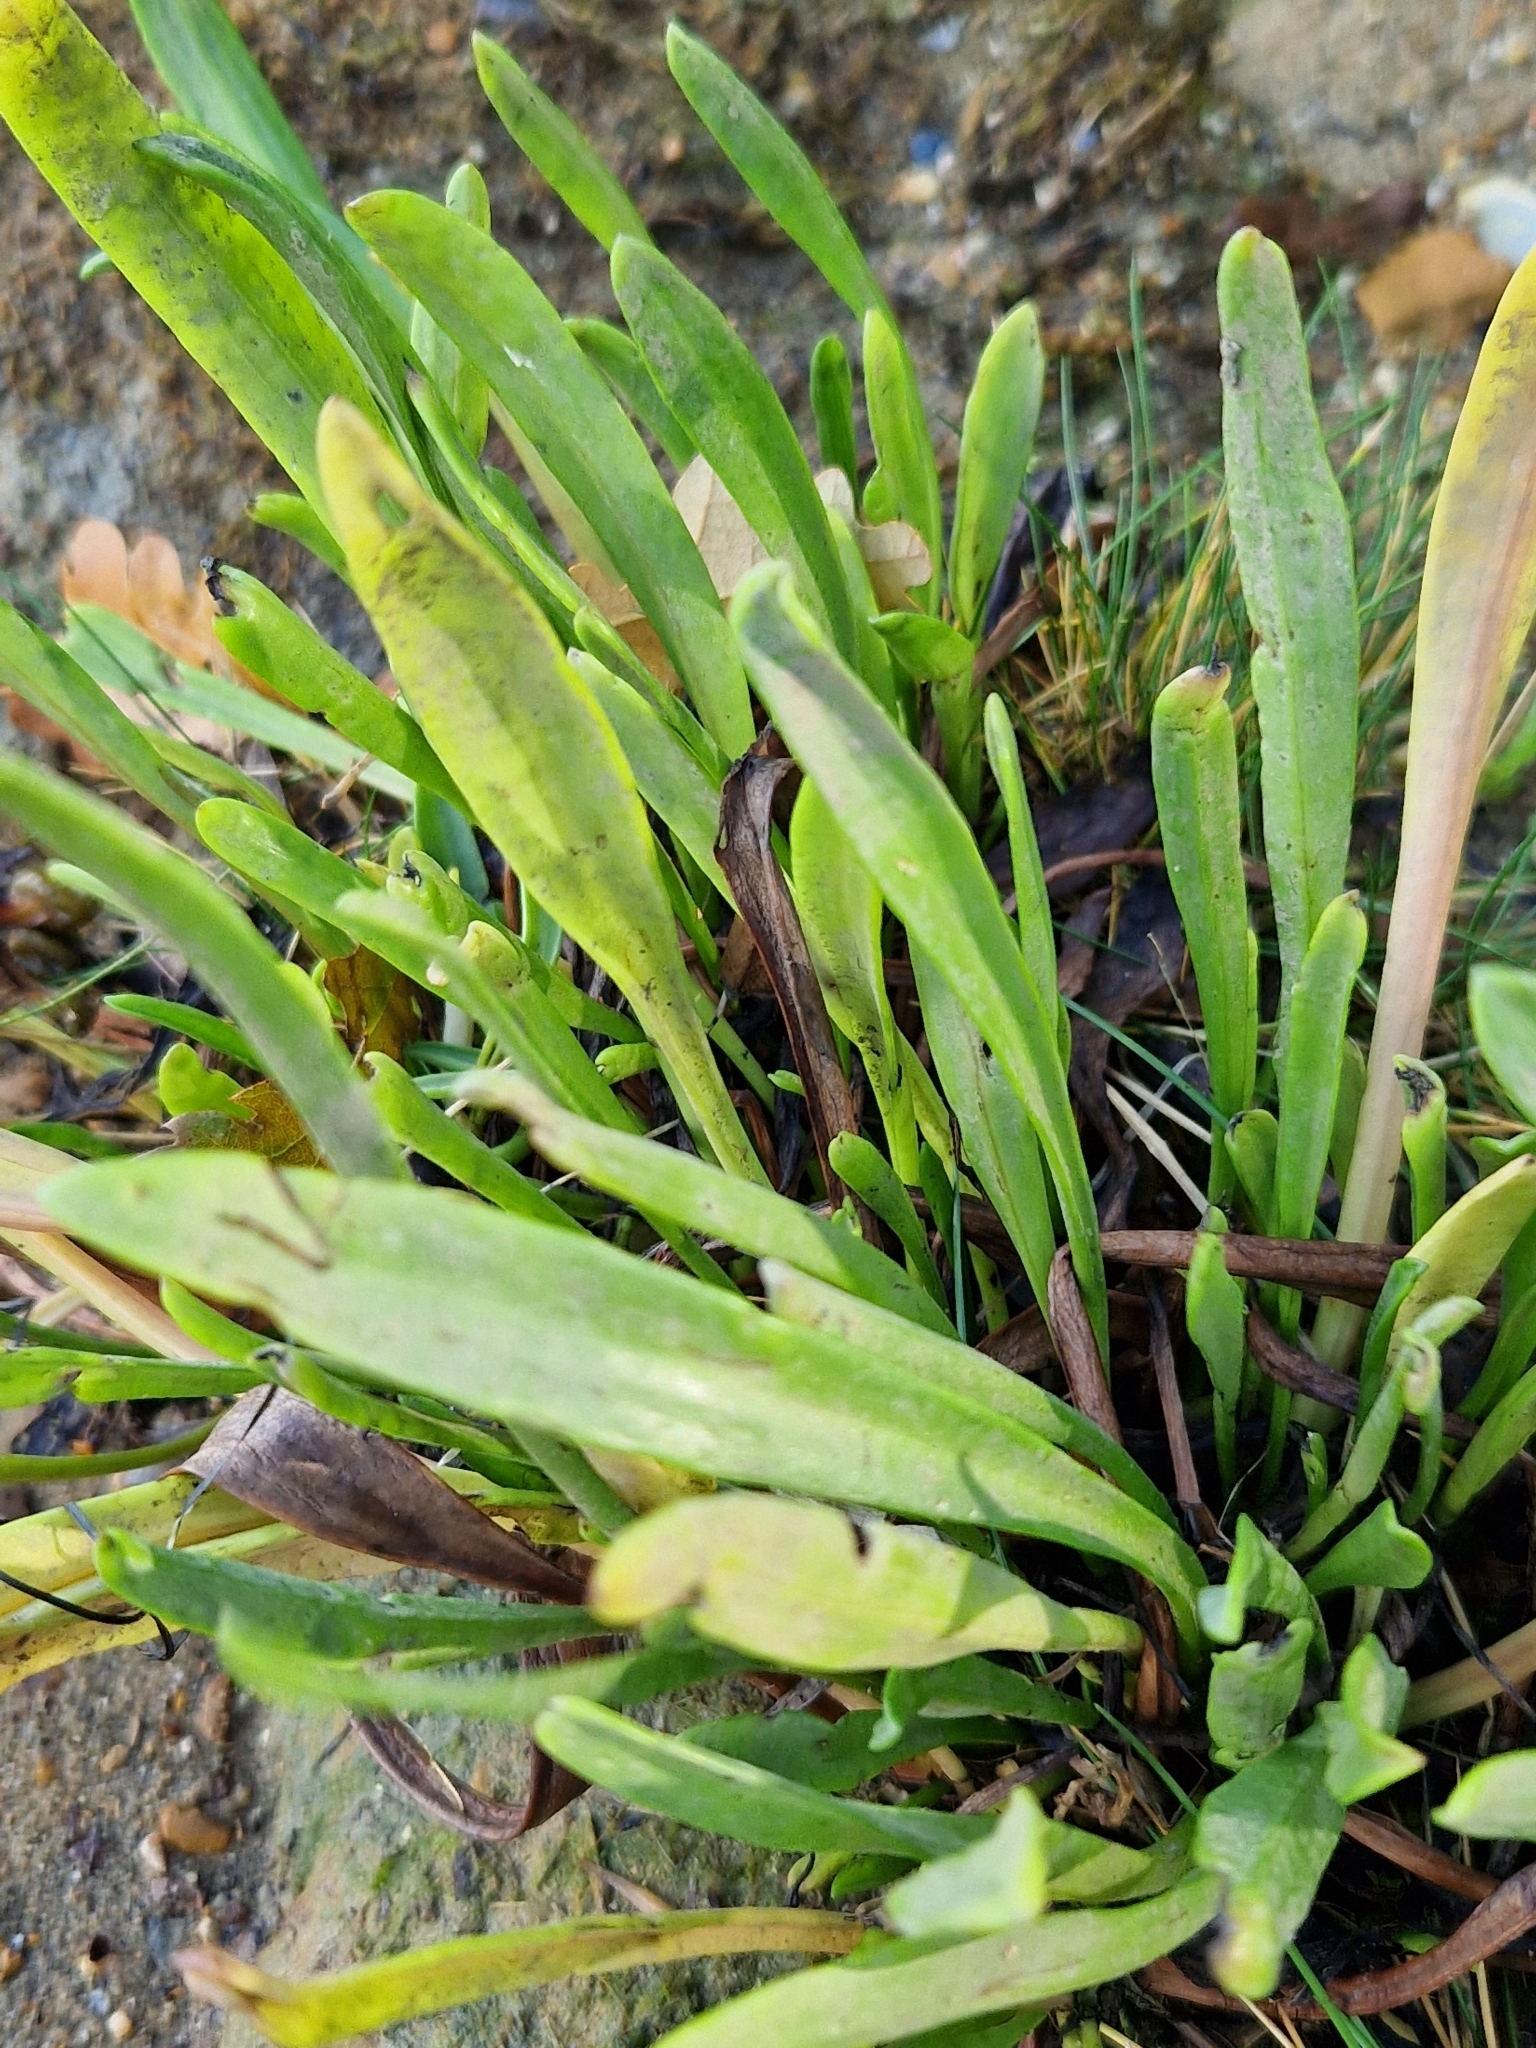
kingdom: Plantae
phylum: Tracheophyta
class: Magnoliopsida
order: Lamiales
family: Plantaginaceae
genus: Plantago
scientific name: Plantago maritima
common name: Sea plantain
